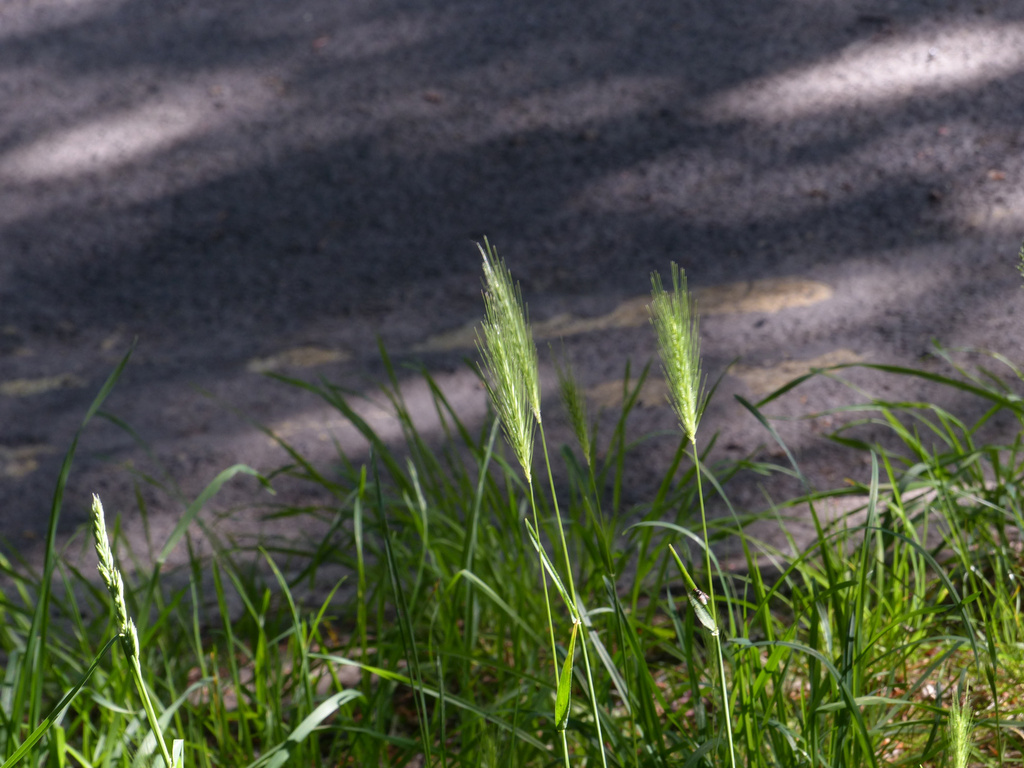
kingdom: Plantae
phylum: Tracheophyta
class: Liliopsida
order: Poales
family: Poaceae
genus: Hordeum
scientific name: Hordeum murinum
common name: Wall barley
